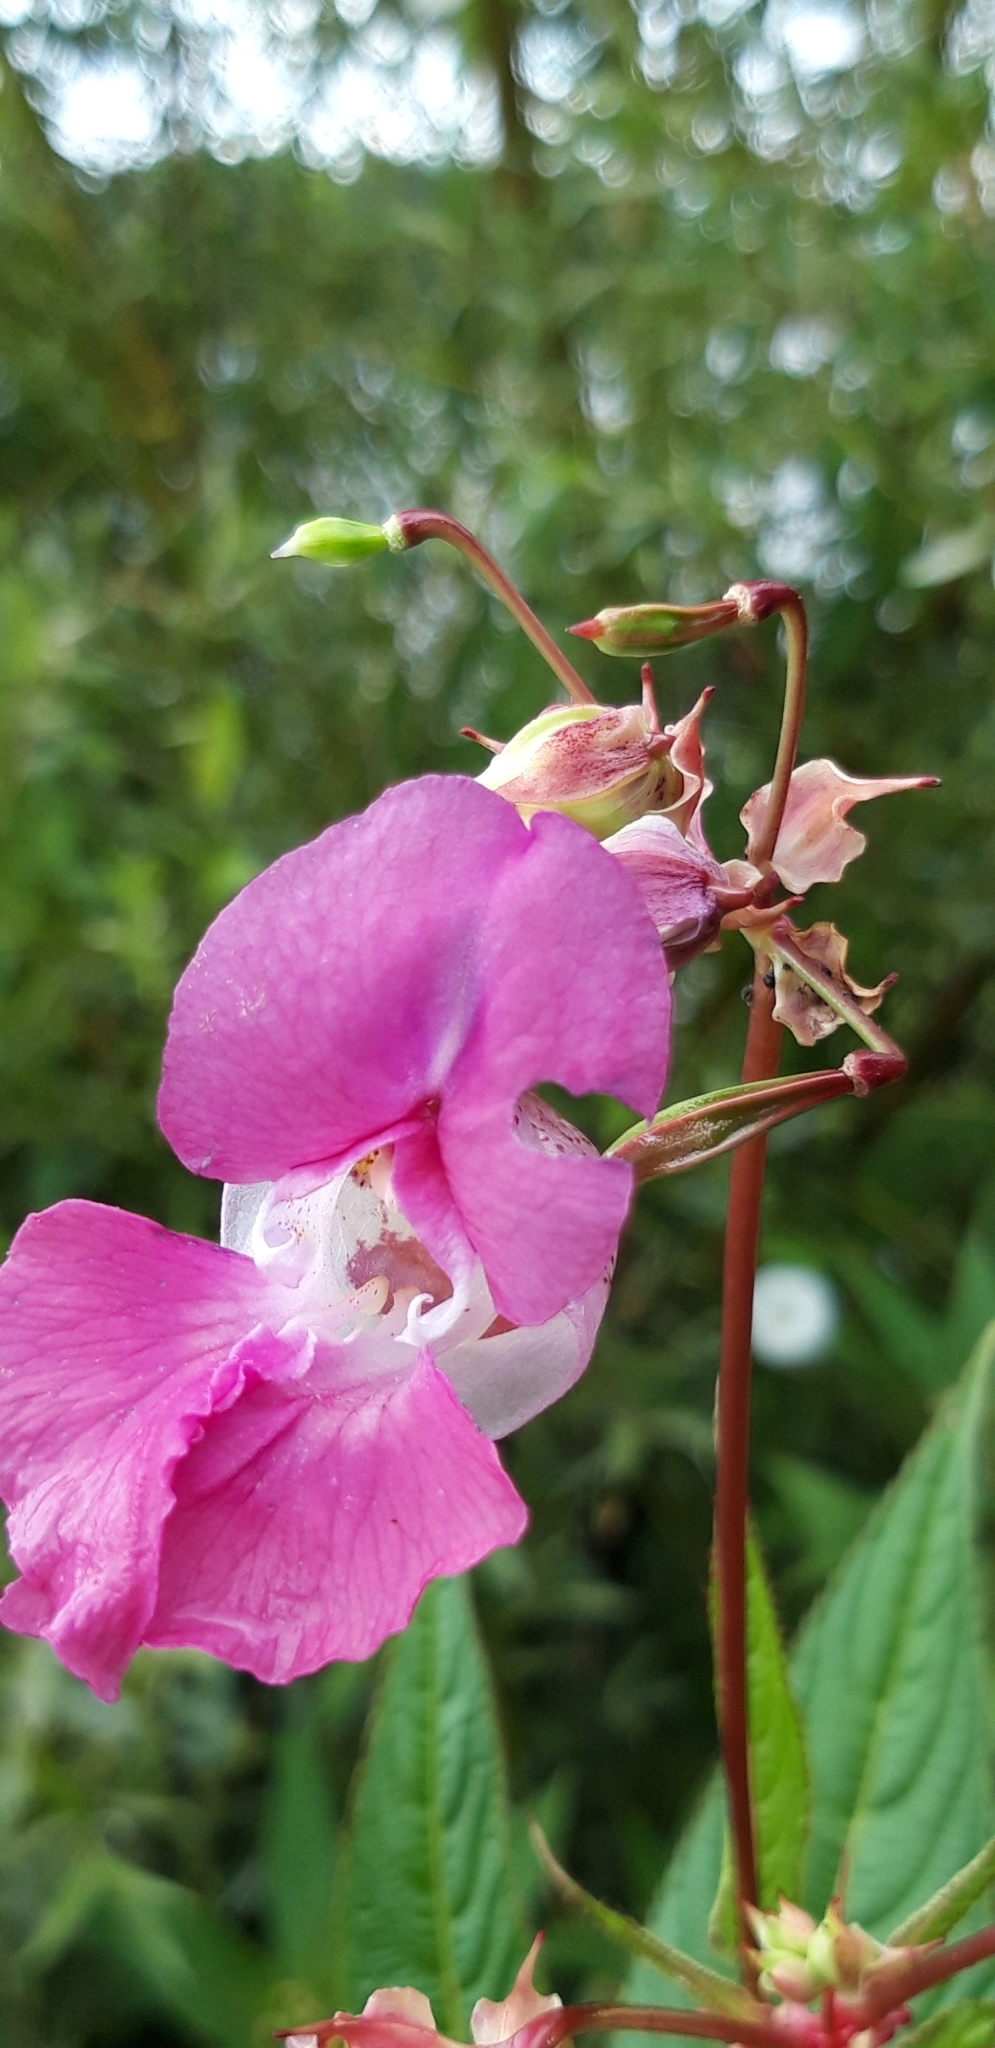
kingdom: Plantae
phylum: Tracheophyta
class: Magnoliopsida
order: Ericales
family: Balsaminaceae
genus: Impatiens
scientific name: Impatiens glandulifera
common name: Himalayan balsam
